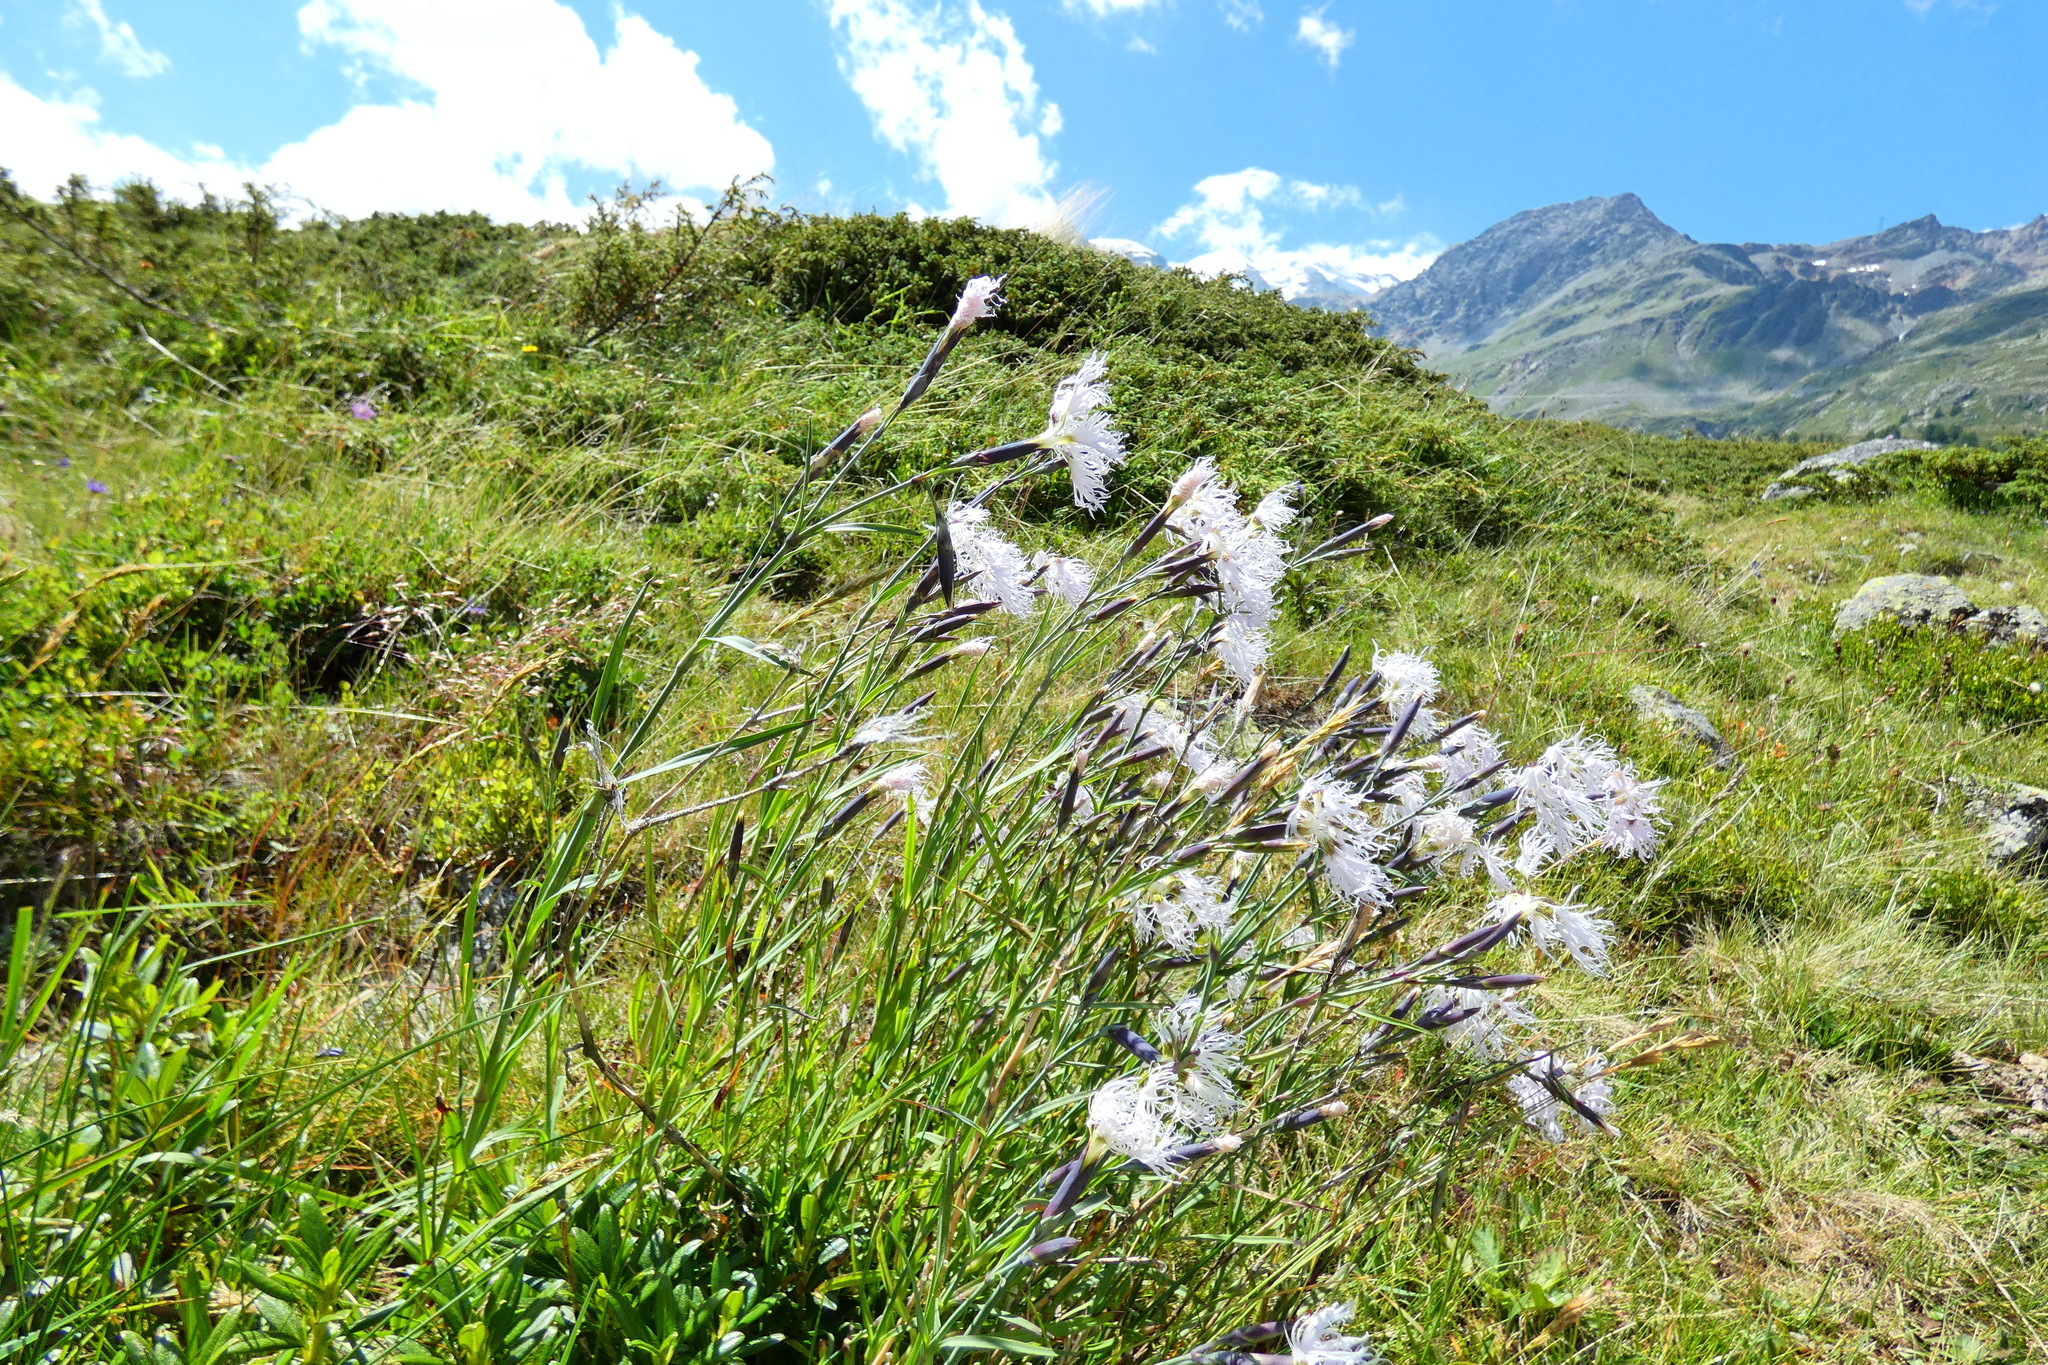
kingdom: Plantae
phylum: Tracheophyta
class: Magnoliopsida
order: Caryophyllales
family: Caryophyllaceae
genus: Dianthus
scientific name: Dianthus superbus
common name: Fringed pink
